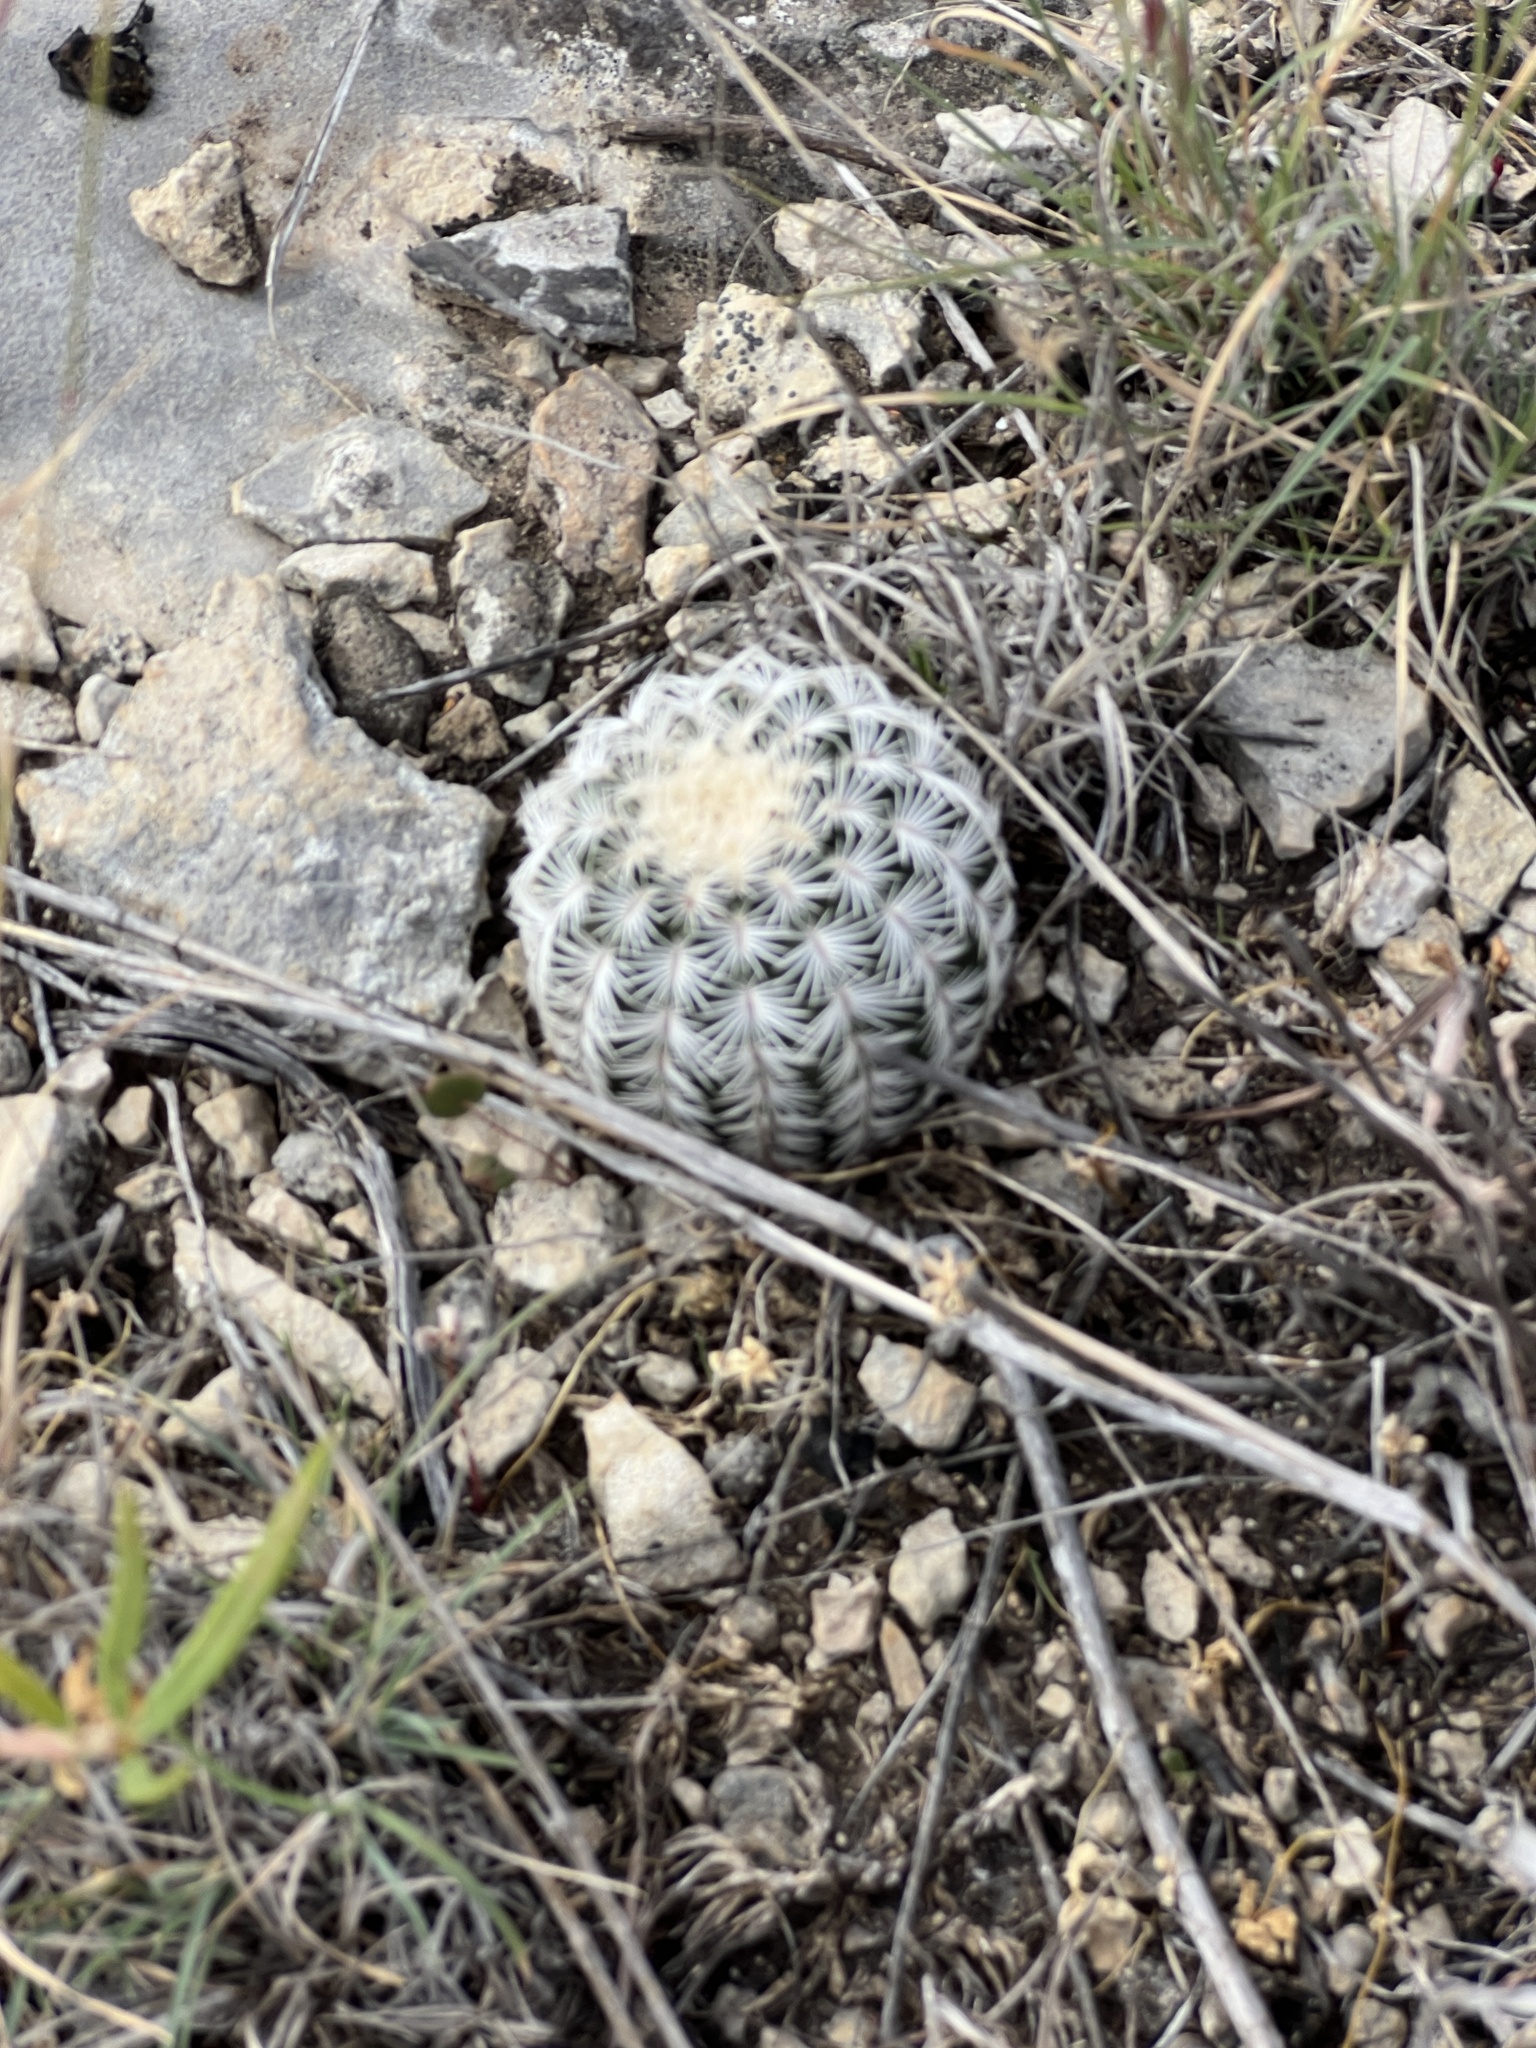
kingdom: Plantae
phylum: Tracheophyta
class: Magnoliopsida
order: Caryophyllales
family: Cactaceae
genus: Echinocereus
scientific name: Echinocereus reichenbachii
